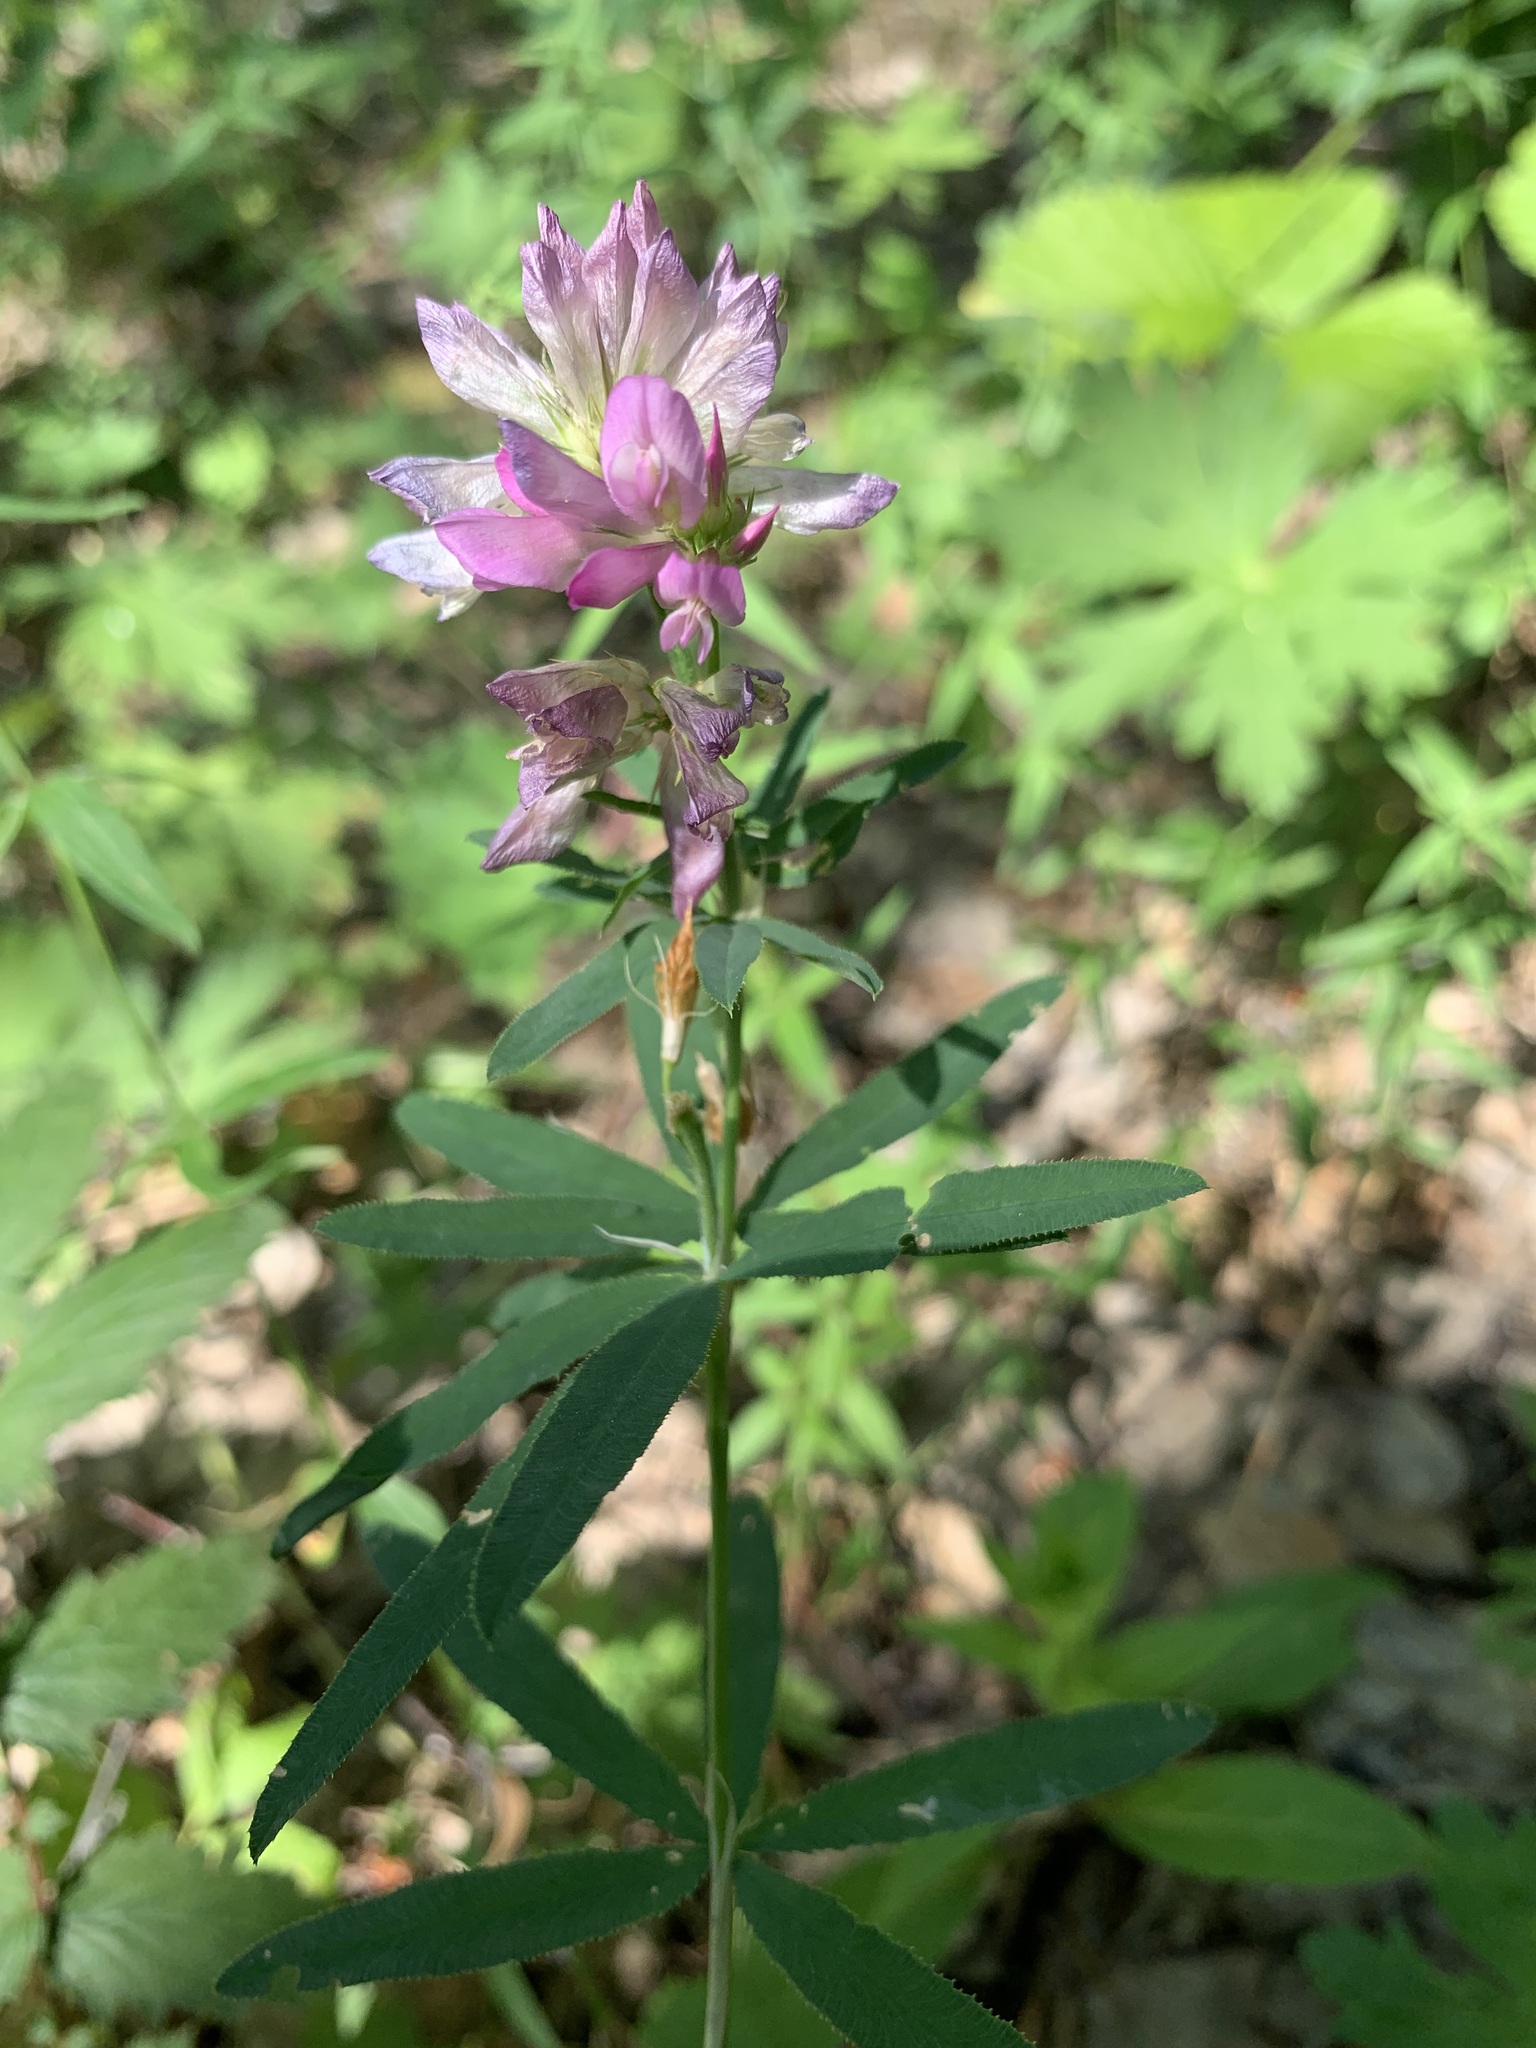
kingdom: Plantae
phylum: Tracheophyta
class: Magnoliopsida
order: Fabales
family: Fabaceae
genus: Trifolium
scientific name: Trifolium lupinaster
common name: Lupine clover
